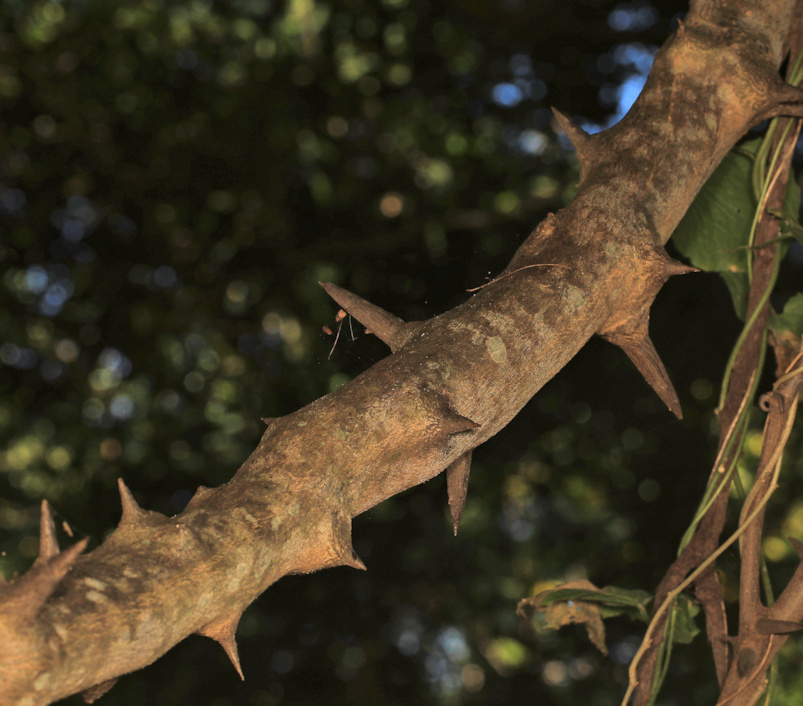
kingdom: Plantae
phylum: Tracheophyta
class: Magnoliopsida
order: Fabales
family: Fabaceae
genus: Dalbergia
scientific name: Dalbergia armata
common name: Hluhluwe climber
